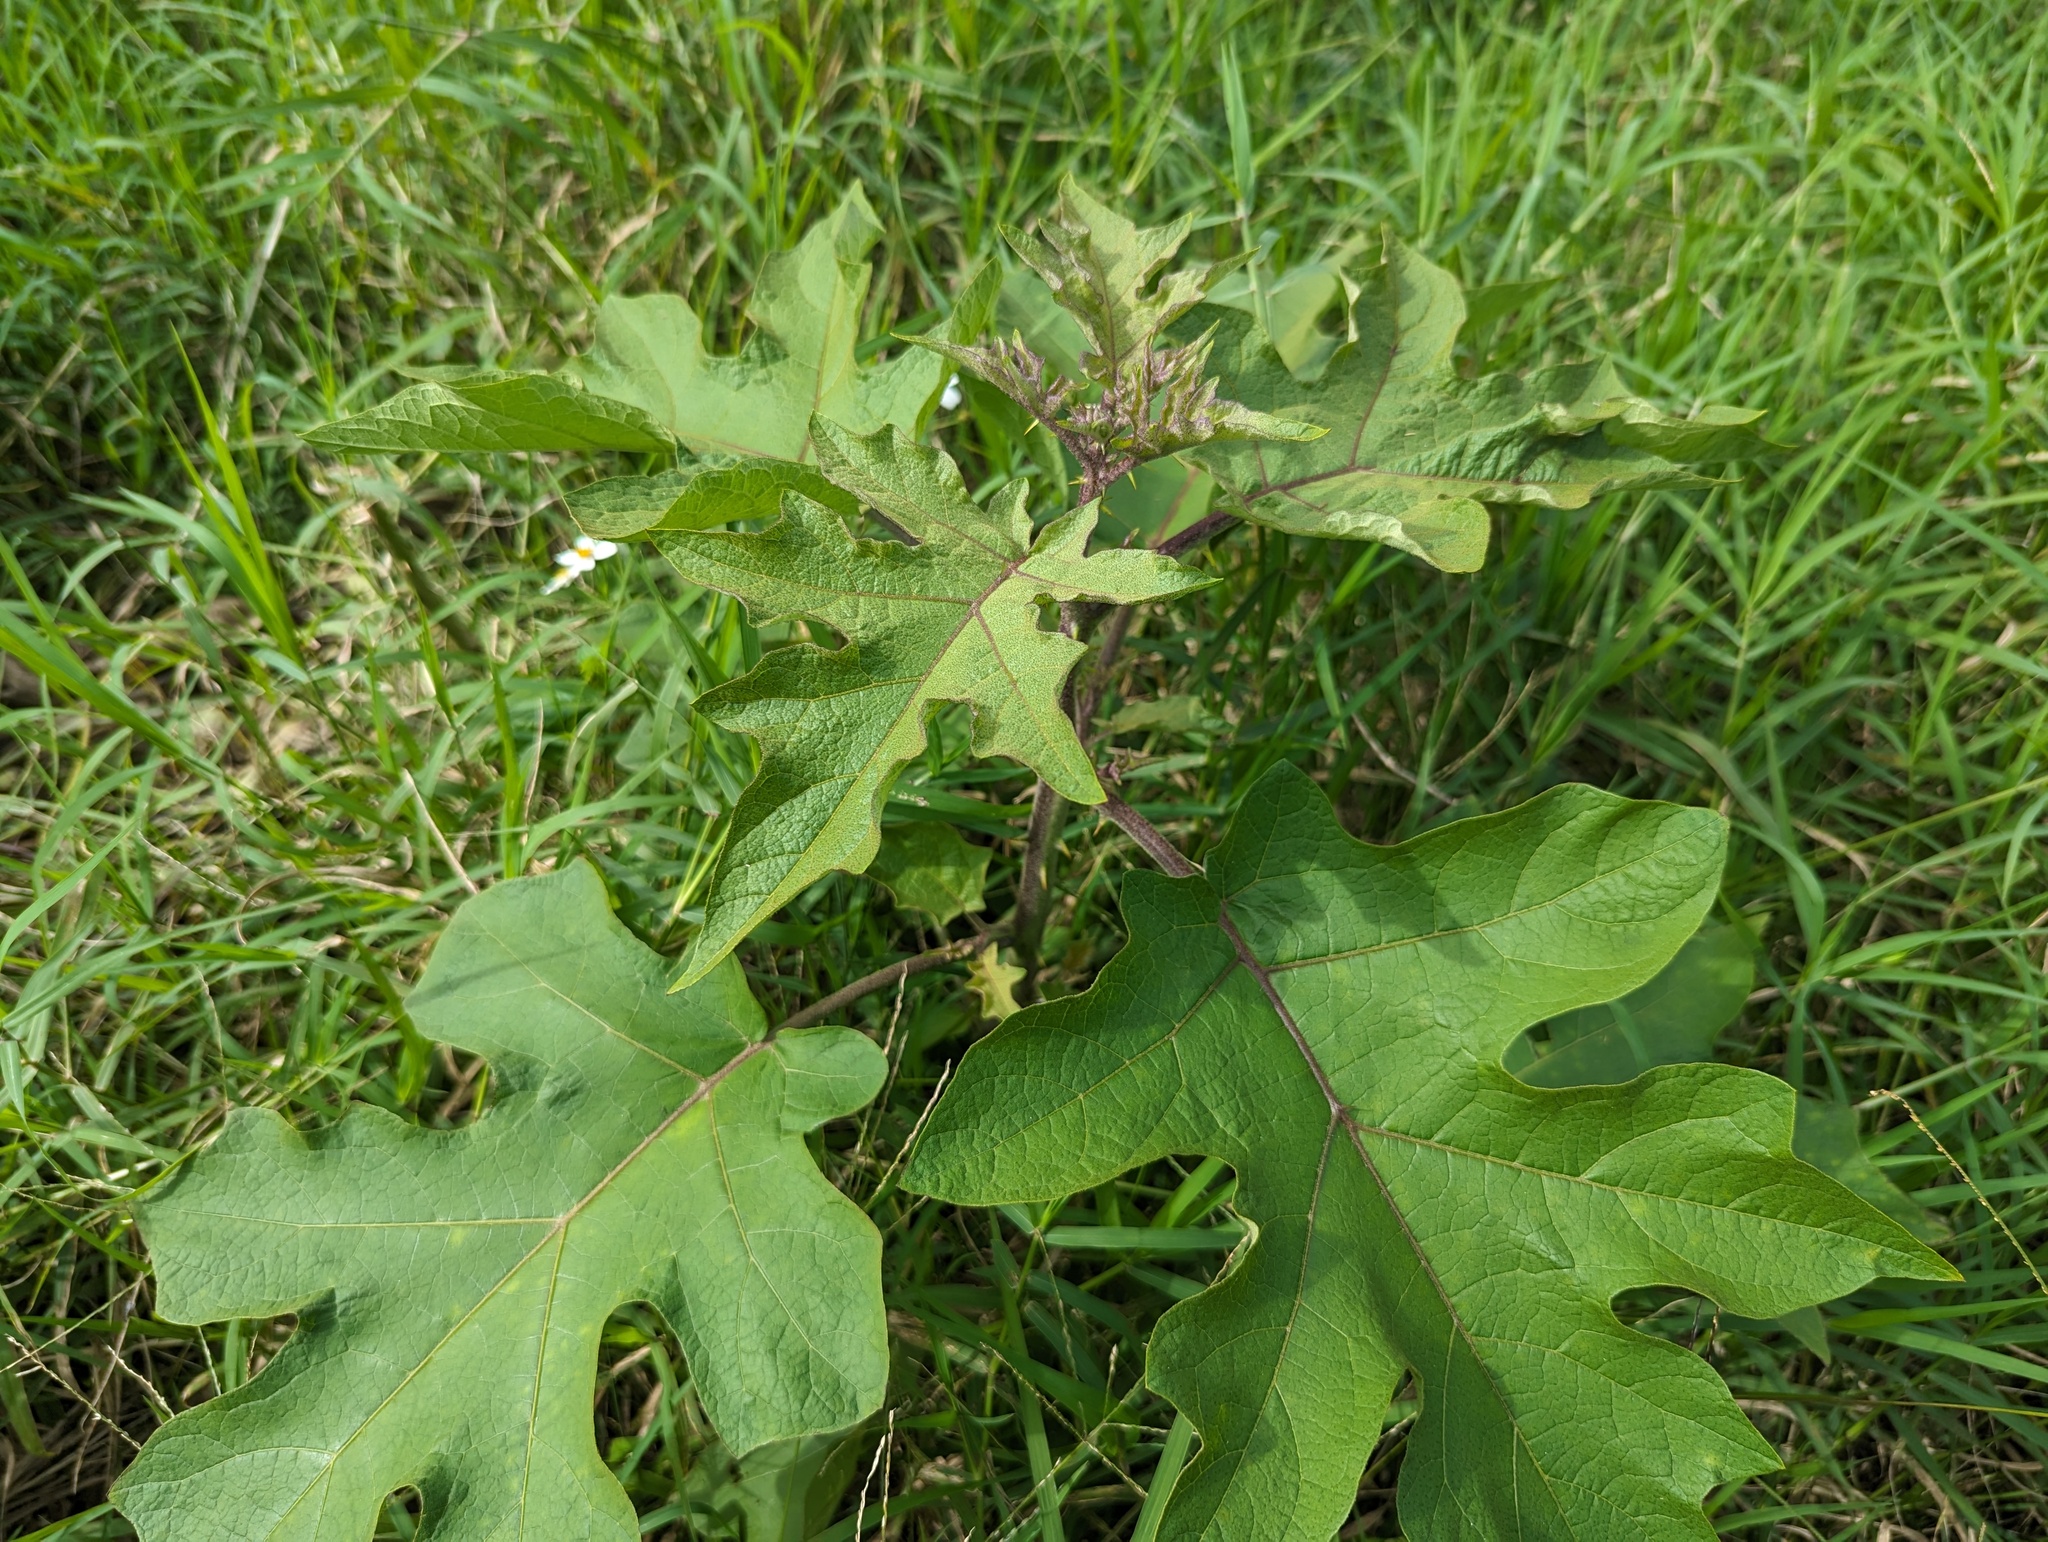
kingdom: Plantae
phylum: Tracheophyta
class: Magnoliopsida
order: Solanales
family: Solanaceae
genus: Solanum
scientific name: Solanum torvum
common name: Turkey berry
